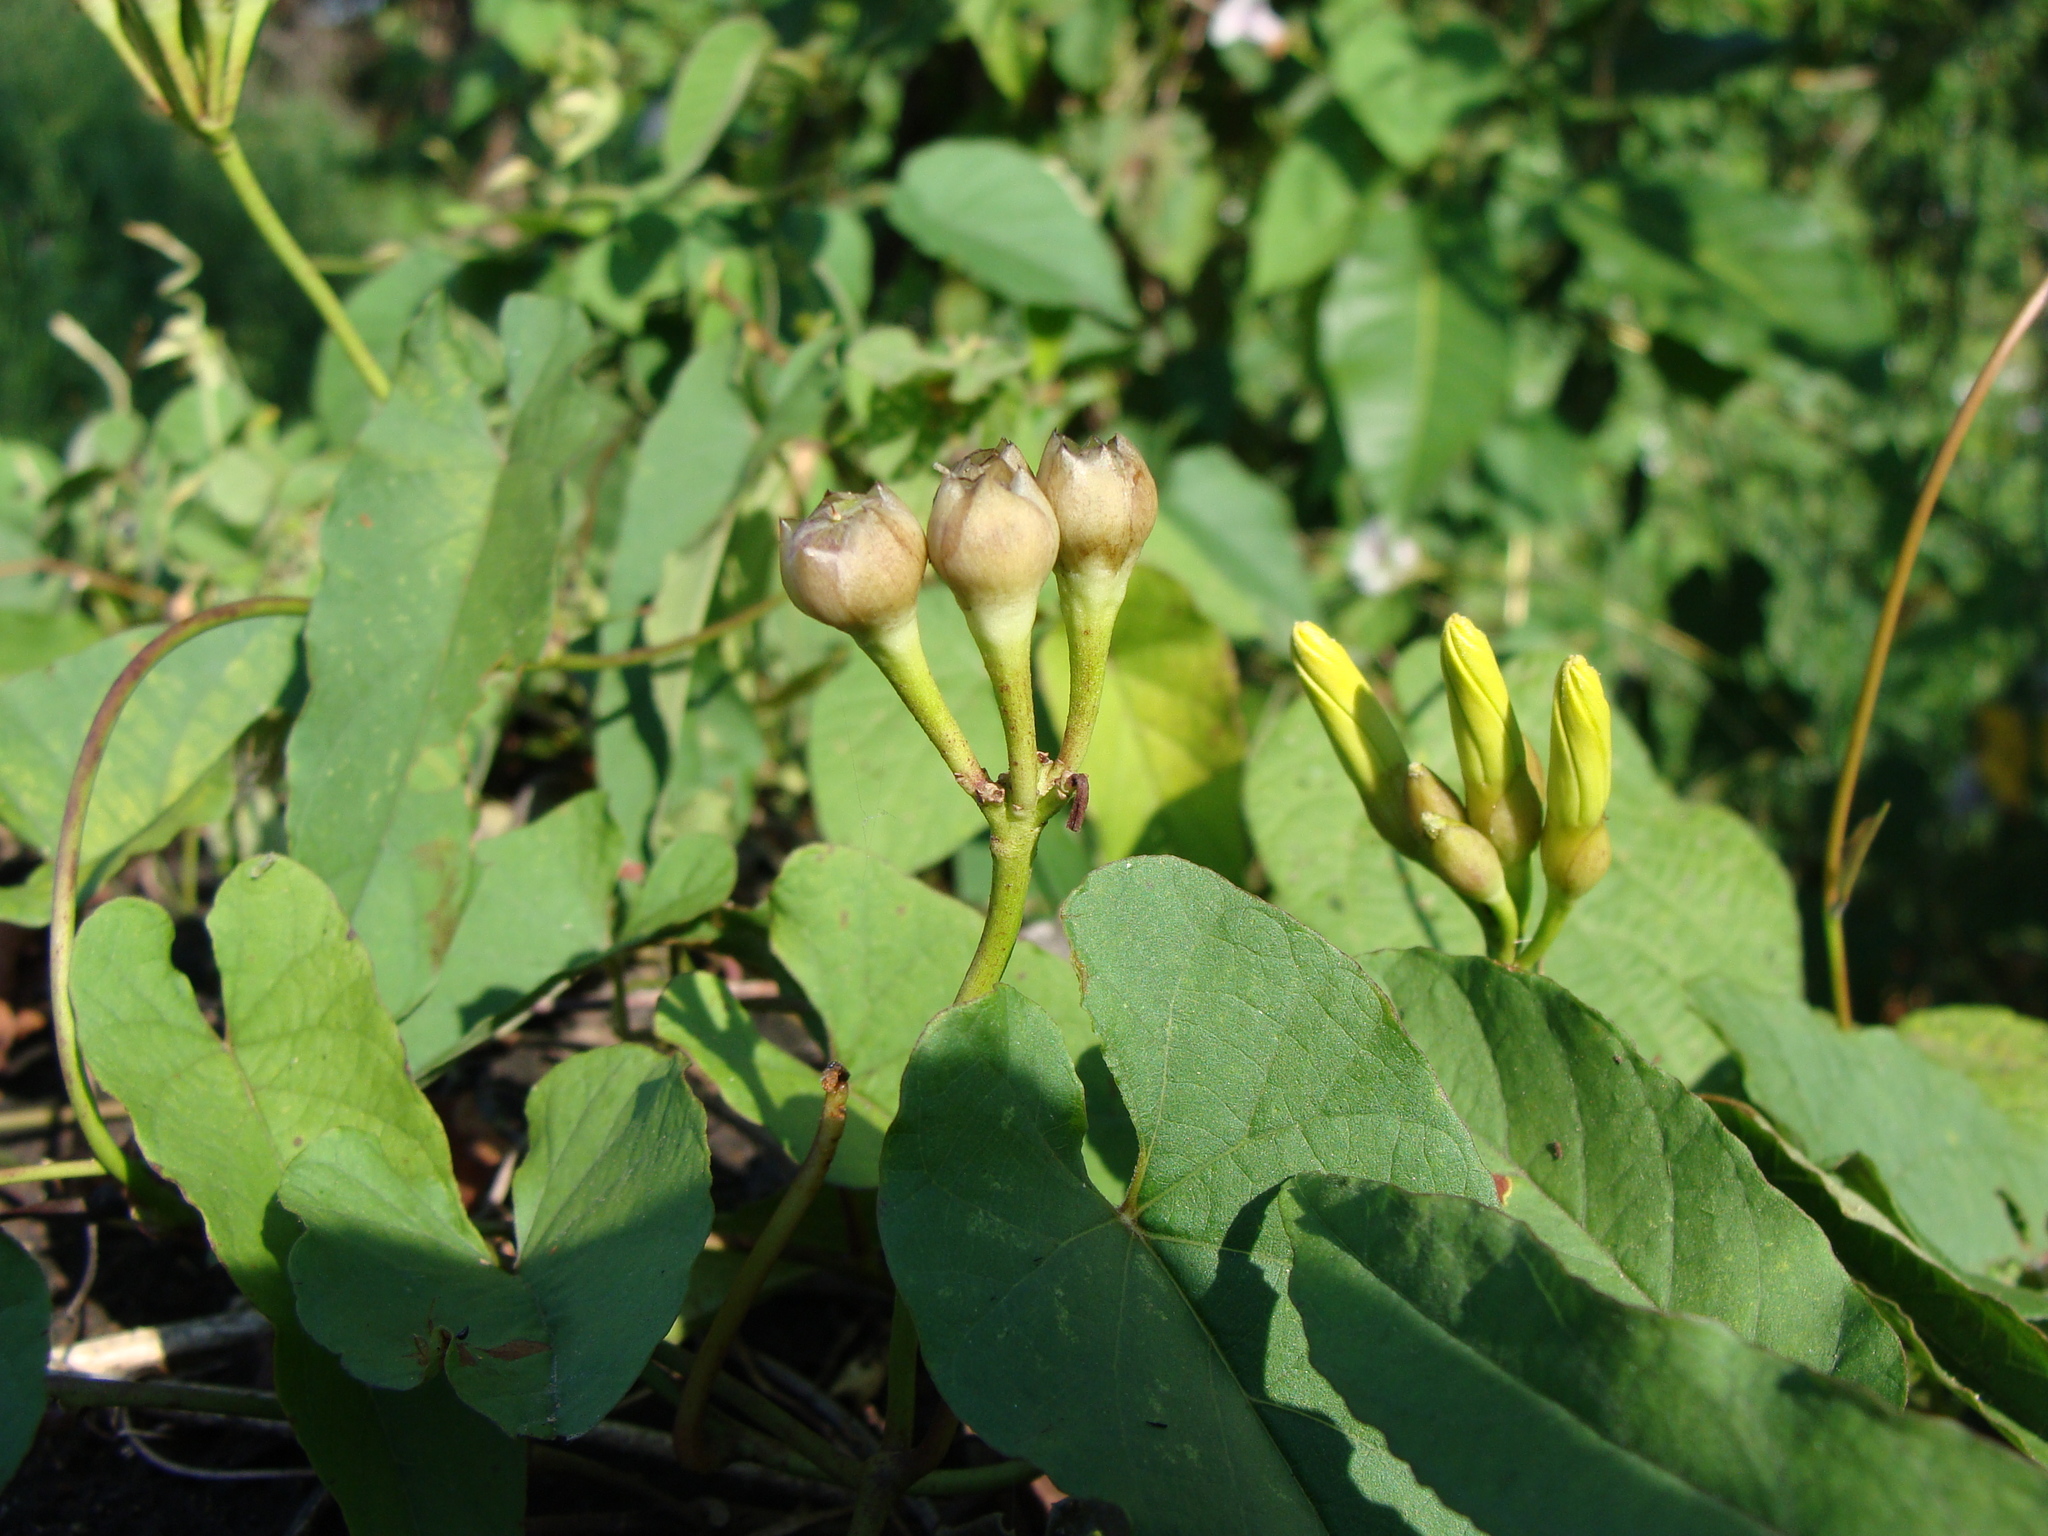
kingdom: Plantae
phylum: Tracheophyta
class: Magnoliopsida
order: Solanales
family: Convolvulaceae
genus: Camonea
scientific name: Camonea umbellata
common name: Hogvine
